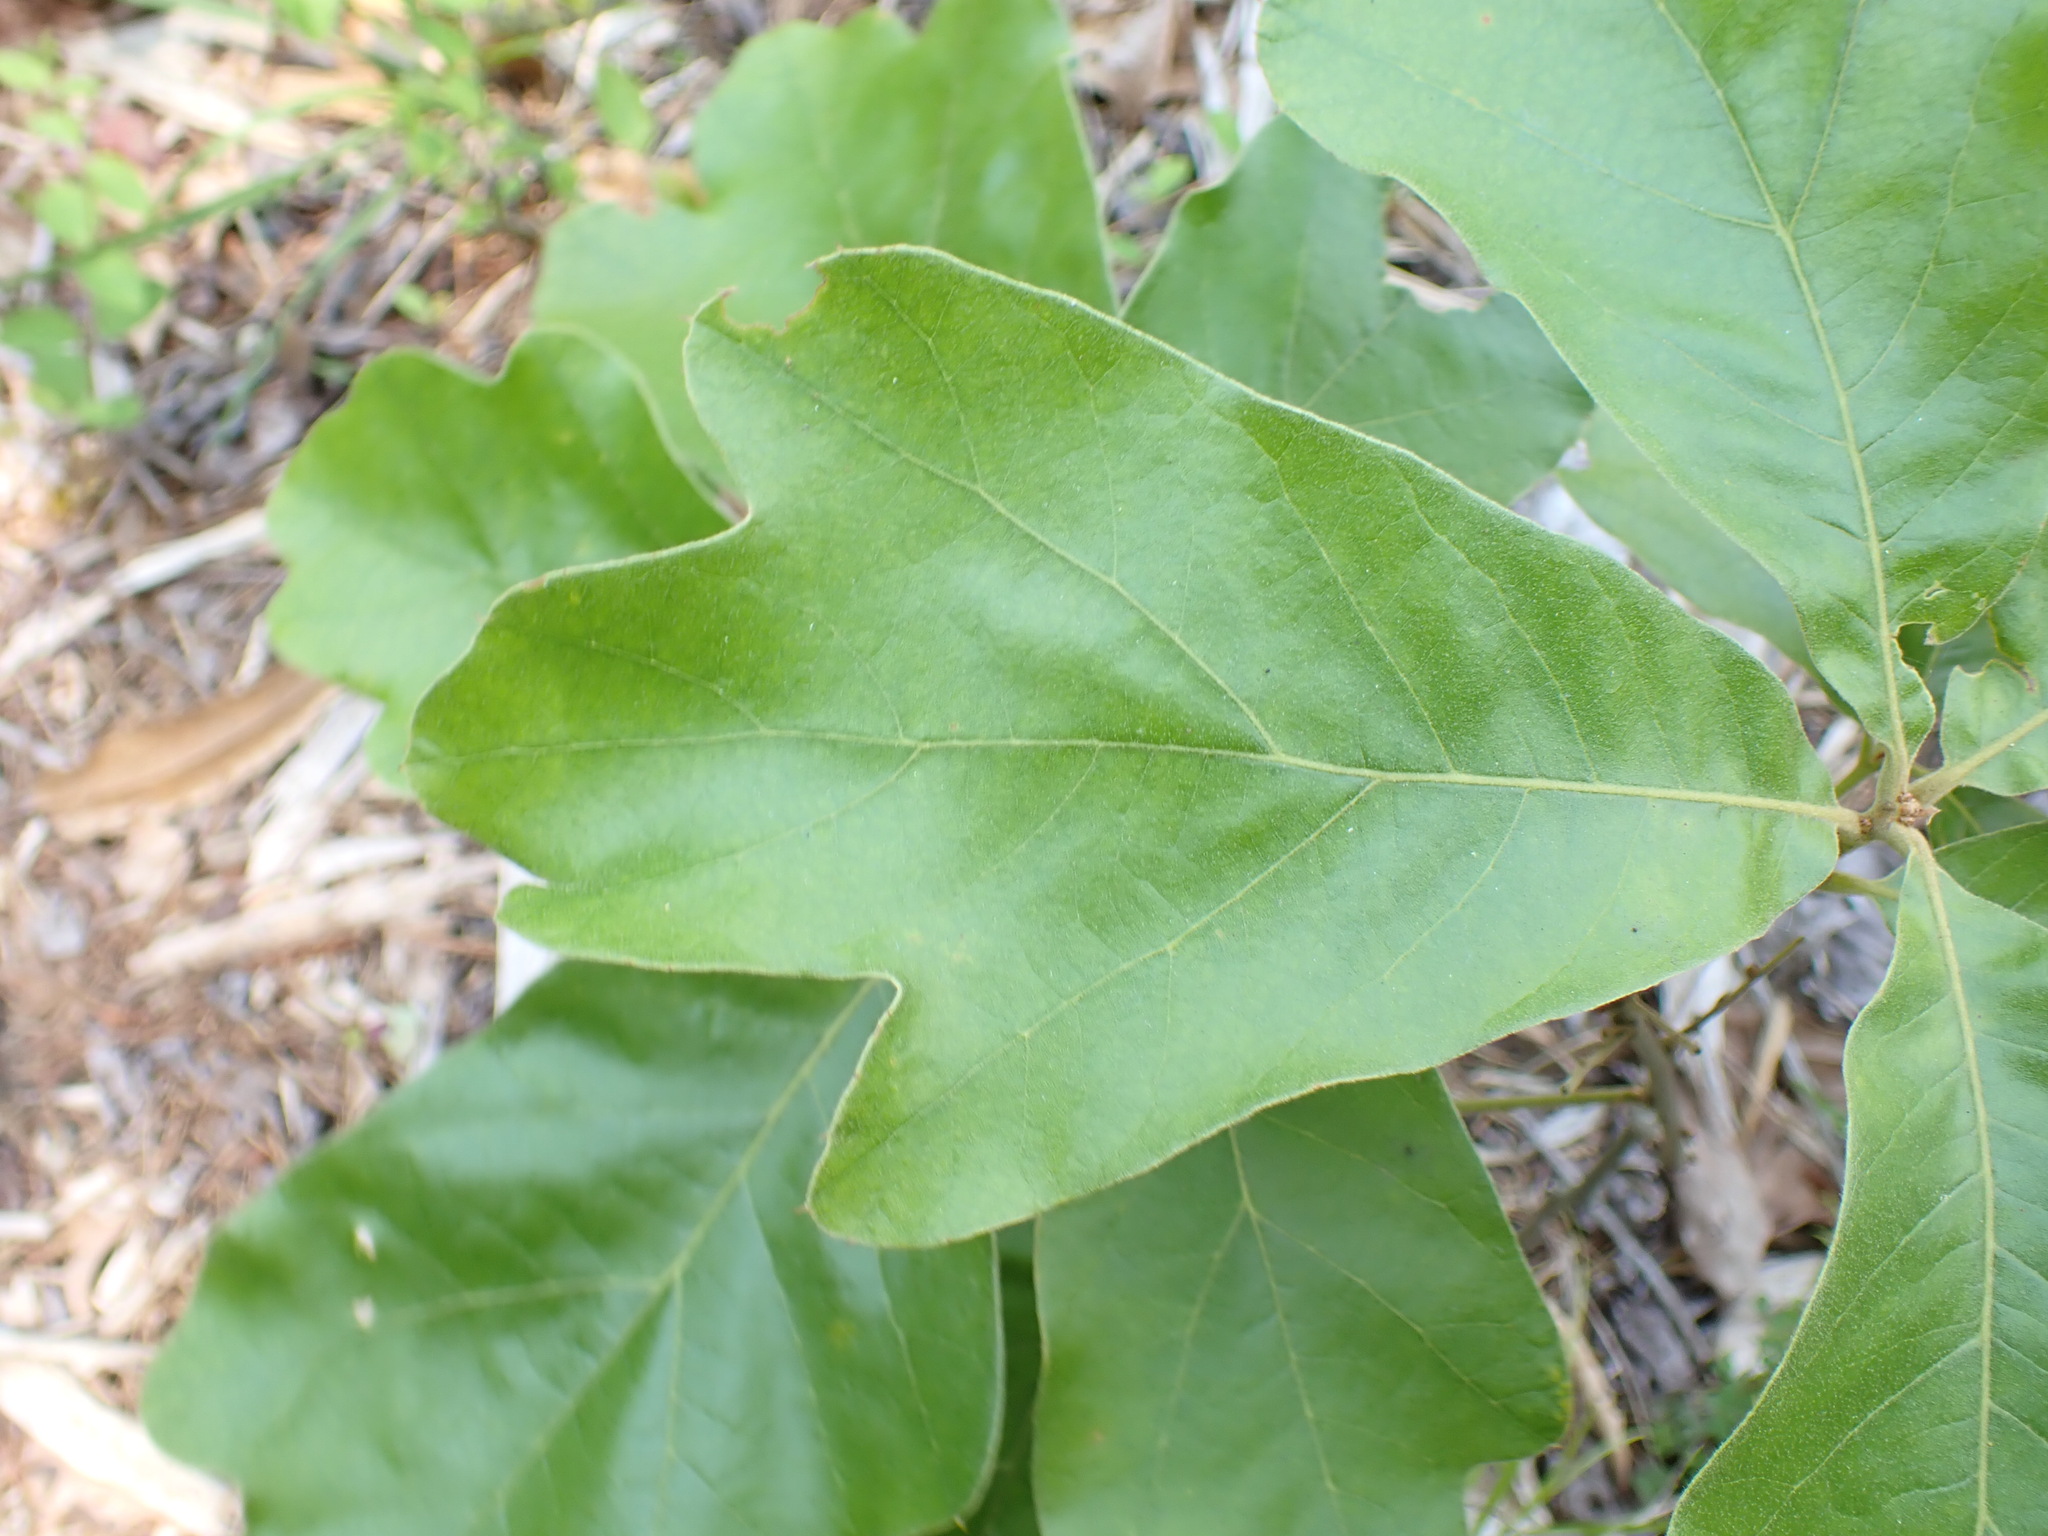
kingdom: Plantae
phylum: Tracheophyta
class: Magnoliopsida
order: Fagales
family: Fagaceae
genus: Quercus
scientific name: Quercus falcata
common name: Southern red oak
